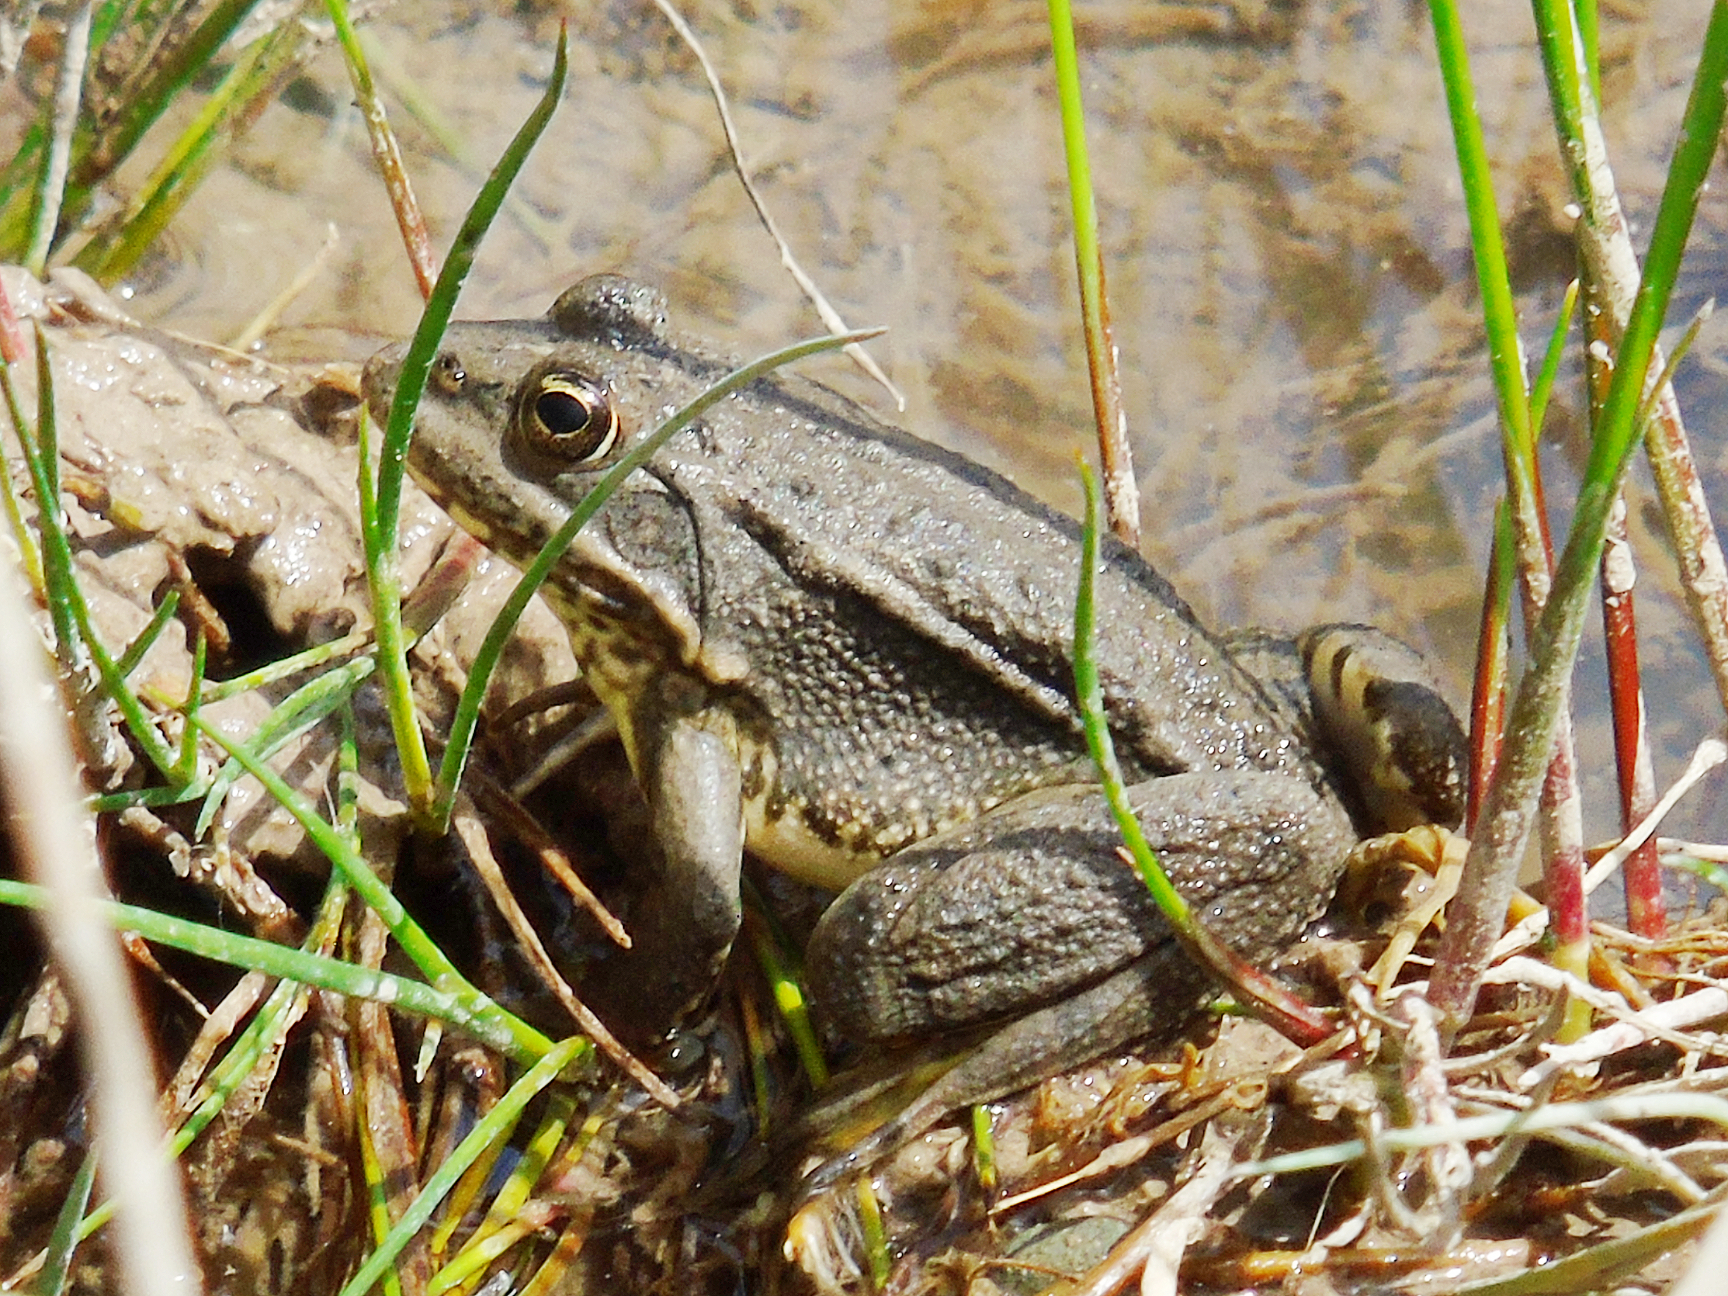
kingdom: Animalia
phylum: Chordata
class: Amphibia
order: Anura
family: Ranidae
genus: Pelophylax
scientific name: Pelophylax ridibundus
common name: Marsh frog
